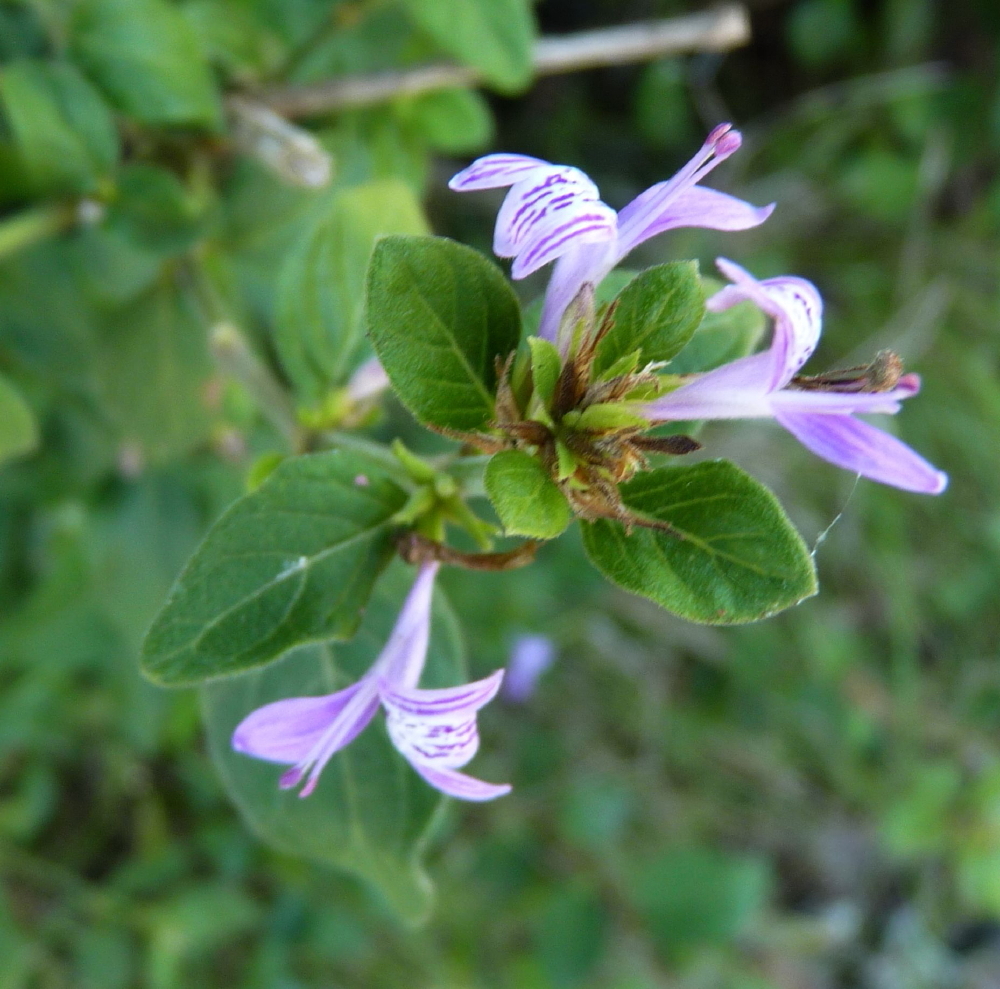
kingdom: Plantae
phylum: Tracheophyta
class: Magnoliopsida
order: Lamiales
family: Acanthaceae
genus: Hypoestes
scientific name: Hypoestes aristata
